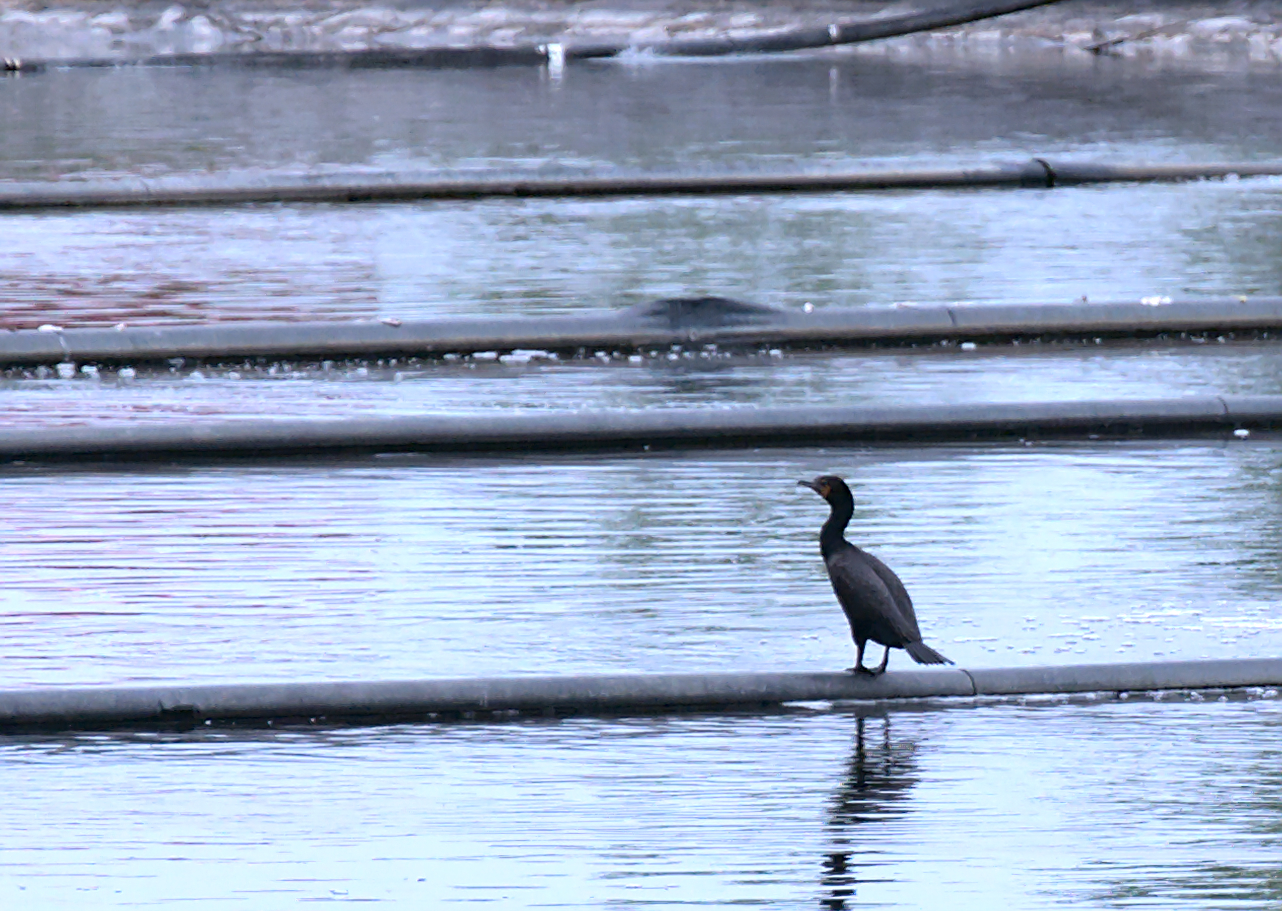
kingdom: Animalia
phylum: Chordata
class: Aves
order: Suliformes
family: Phalacrocoracidae
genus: Phalacrocorax
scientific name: Phalacrocorax auritus
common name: Double-crested cormorant
